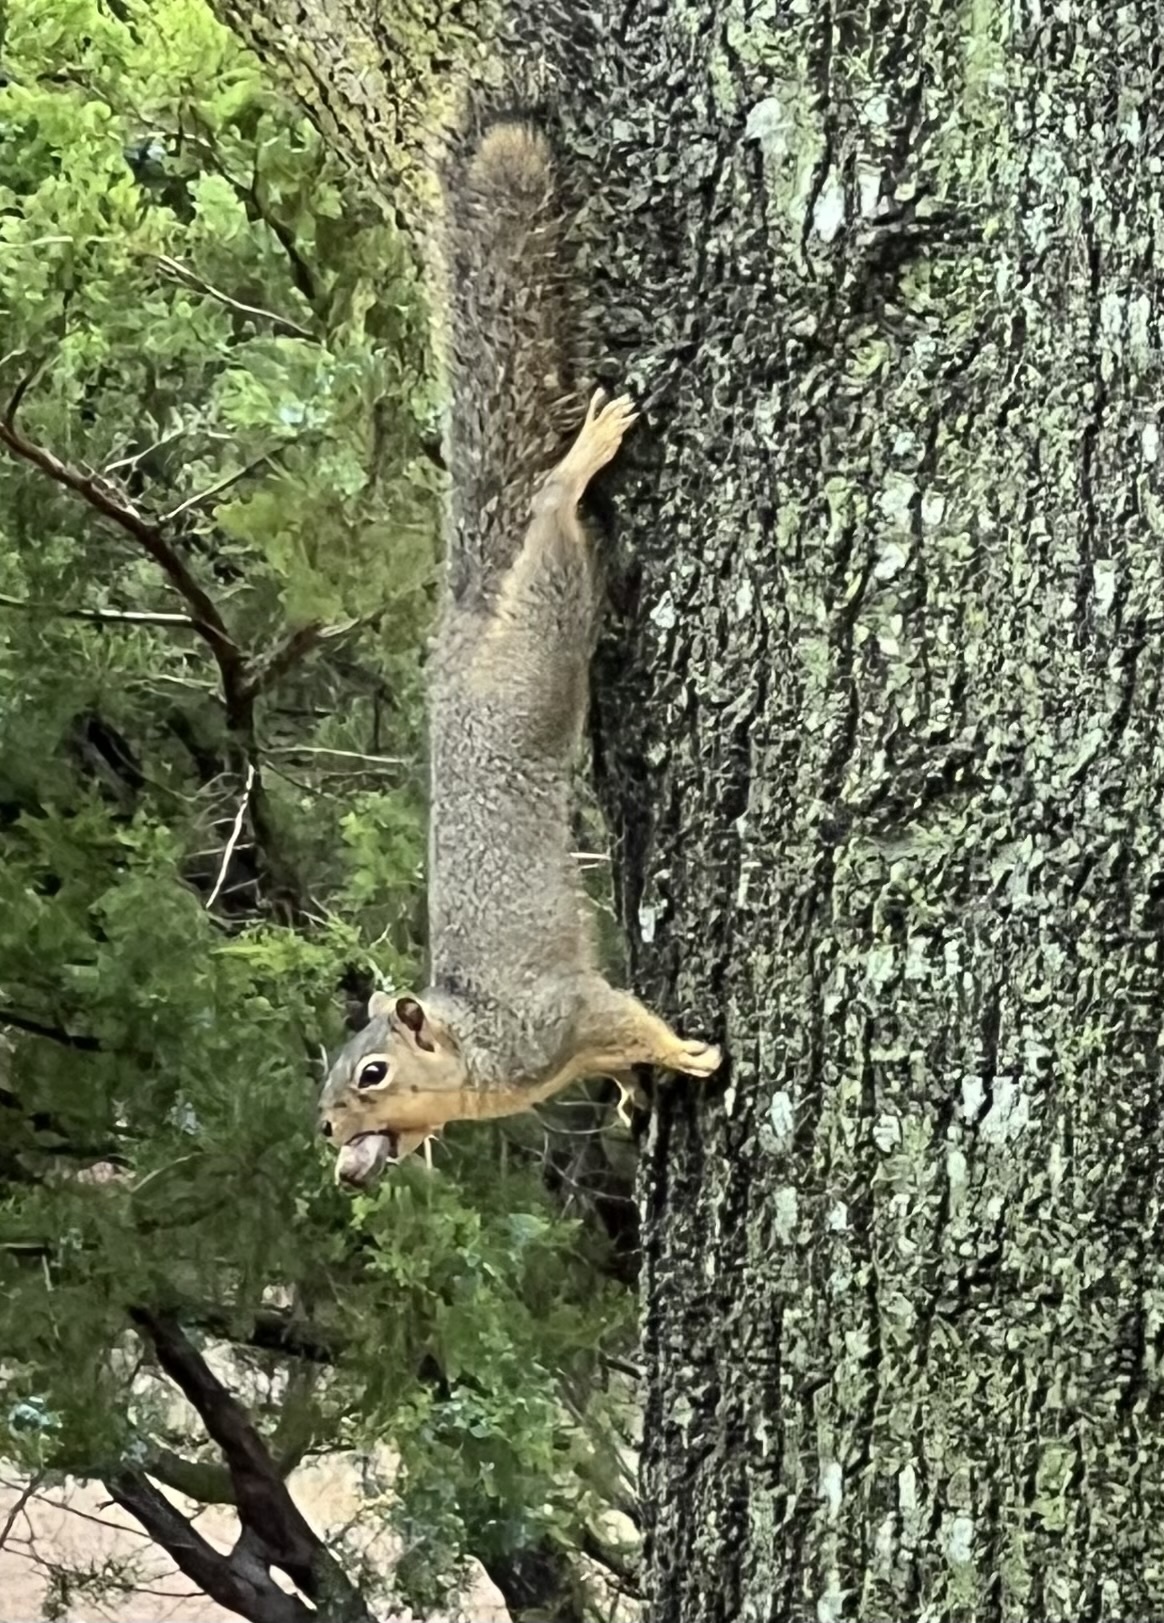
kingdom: Animalia
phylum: Chordata
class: Mammalia
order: Rodentia
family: Sciuridae
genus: Sciurus
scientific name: Sciurus niger
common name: Fox squirrel
